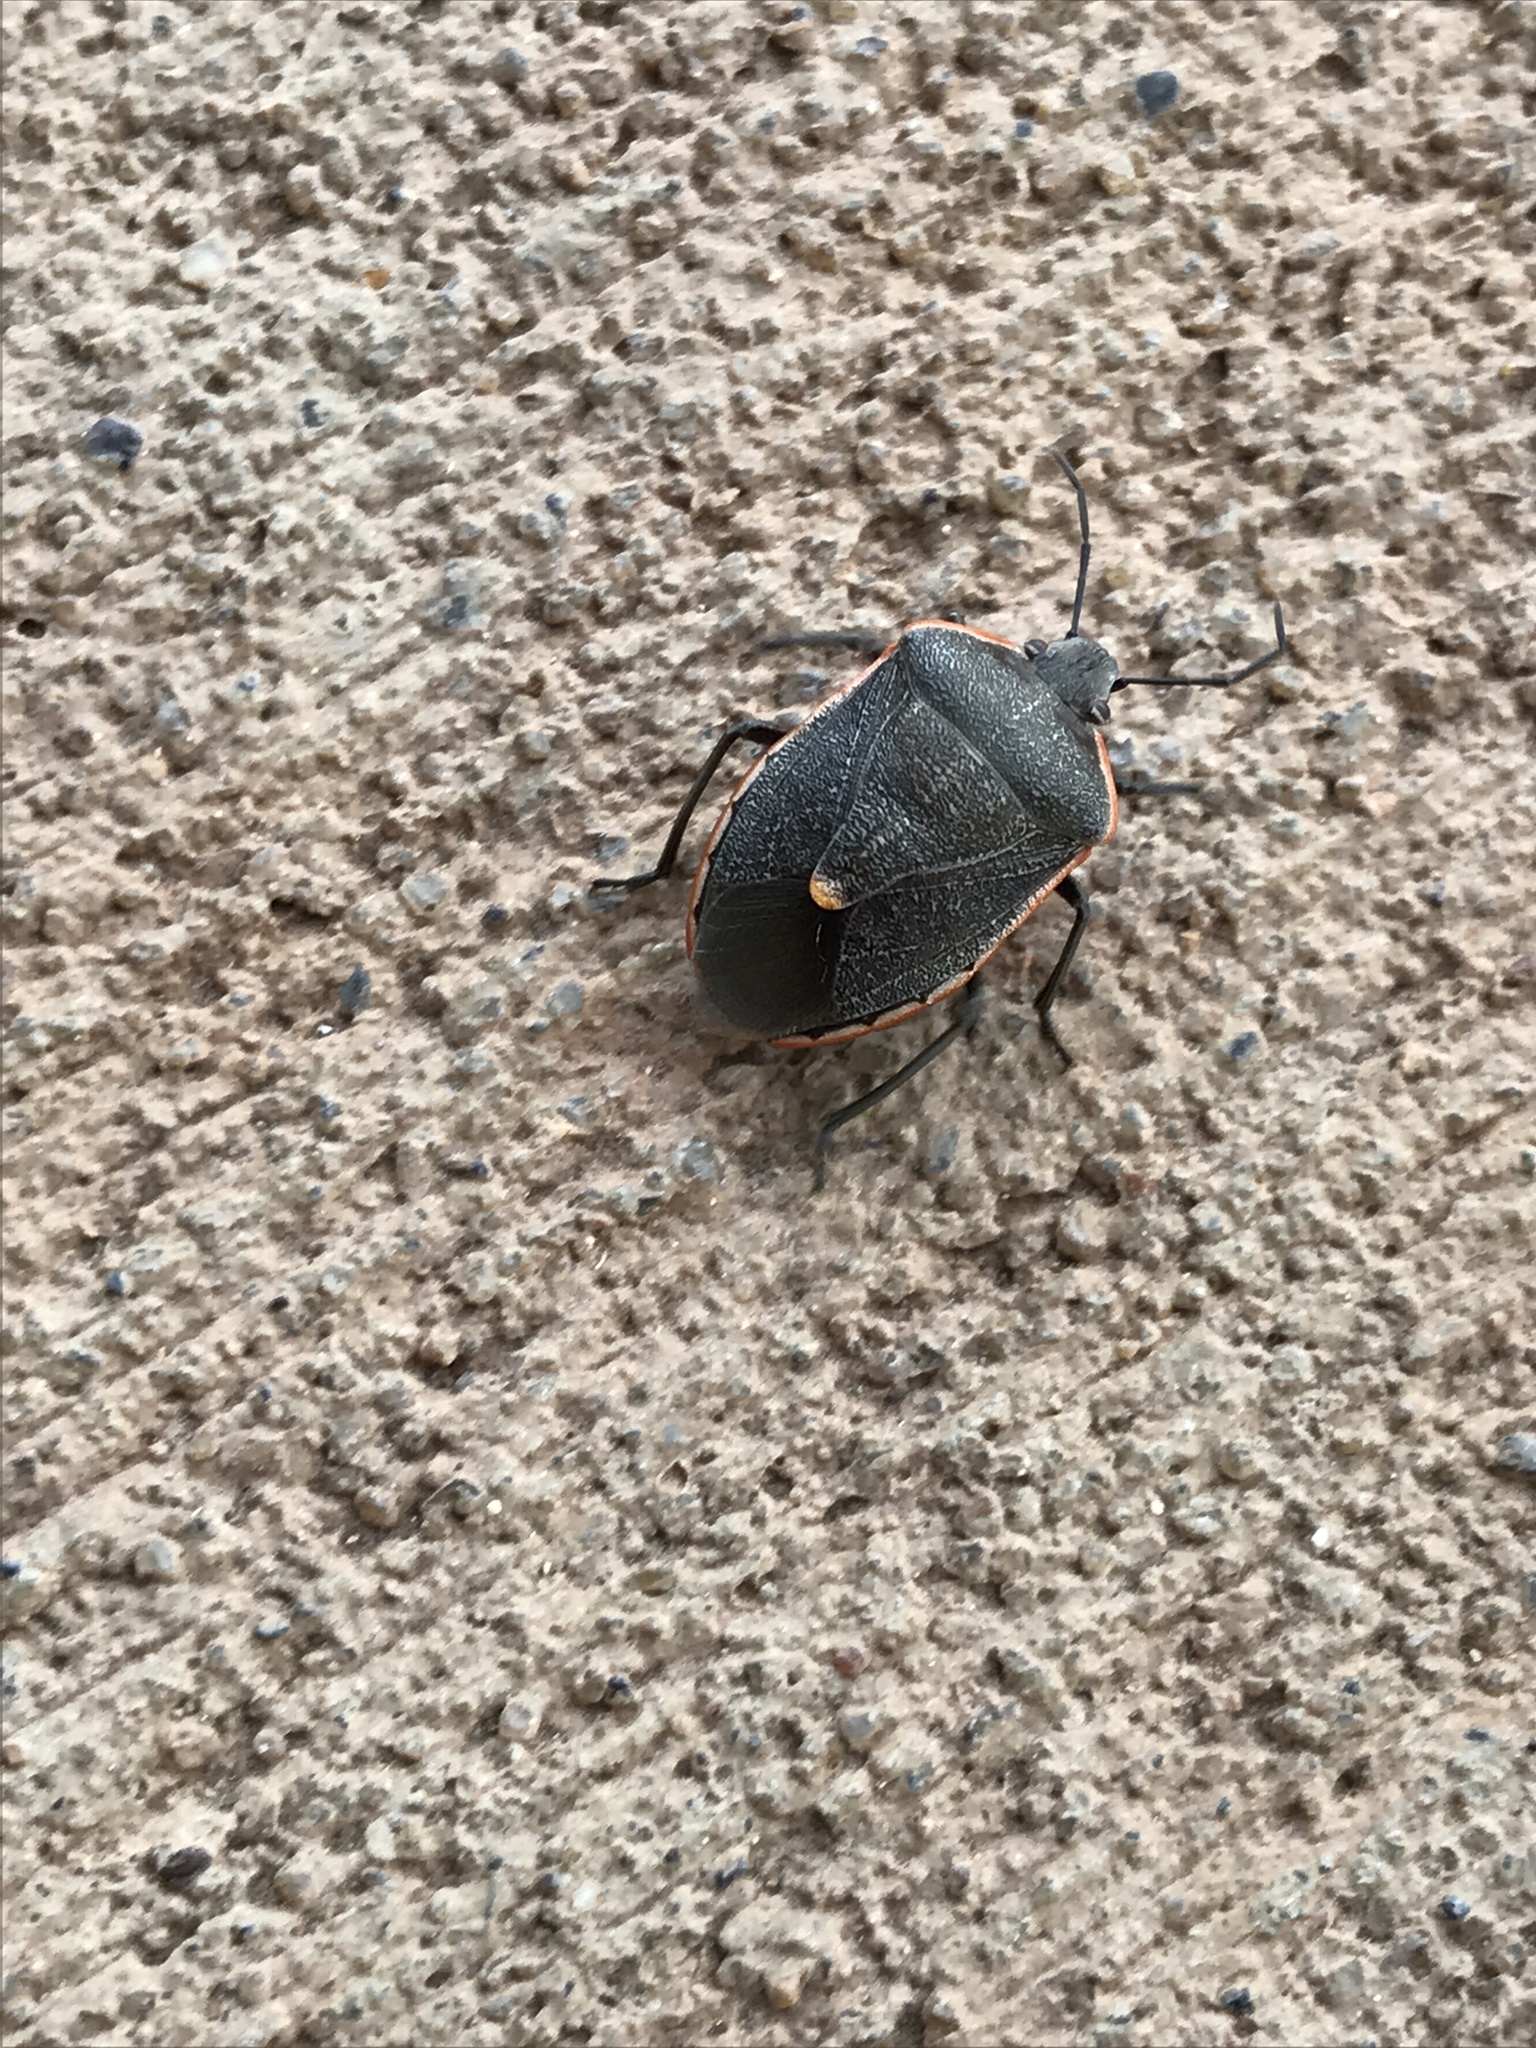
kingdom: Animalia
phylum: Arthropoda
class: Insecta
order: Hemiptera
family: Pentatomidae
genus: Chlorochroa
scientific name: Chlorochroa ligata
